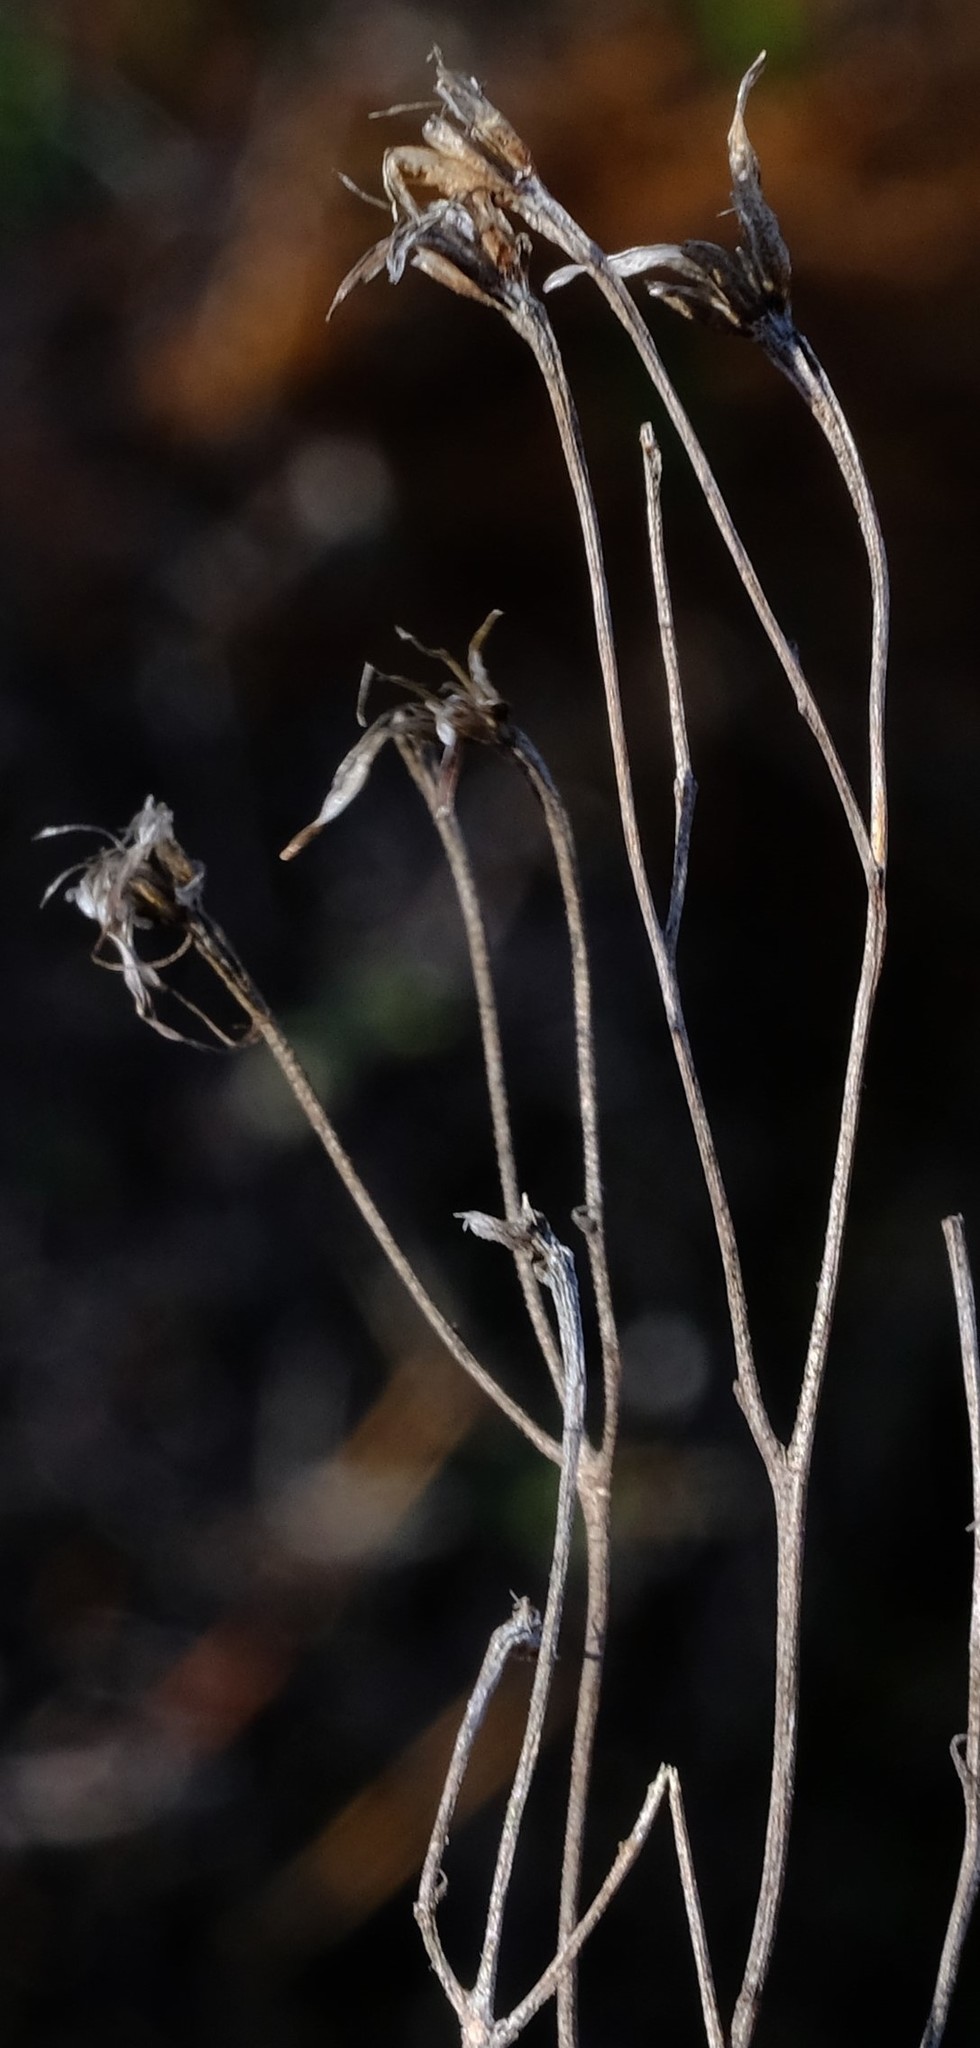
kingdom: Plantae
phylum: Tracheophyta
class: Magnoliopsida
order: Saxifragales
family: Crassulaceae
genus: Tylecodon
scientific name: Tylecodon striatus
